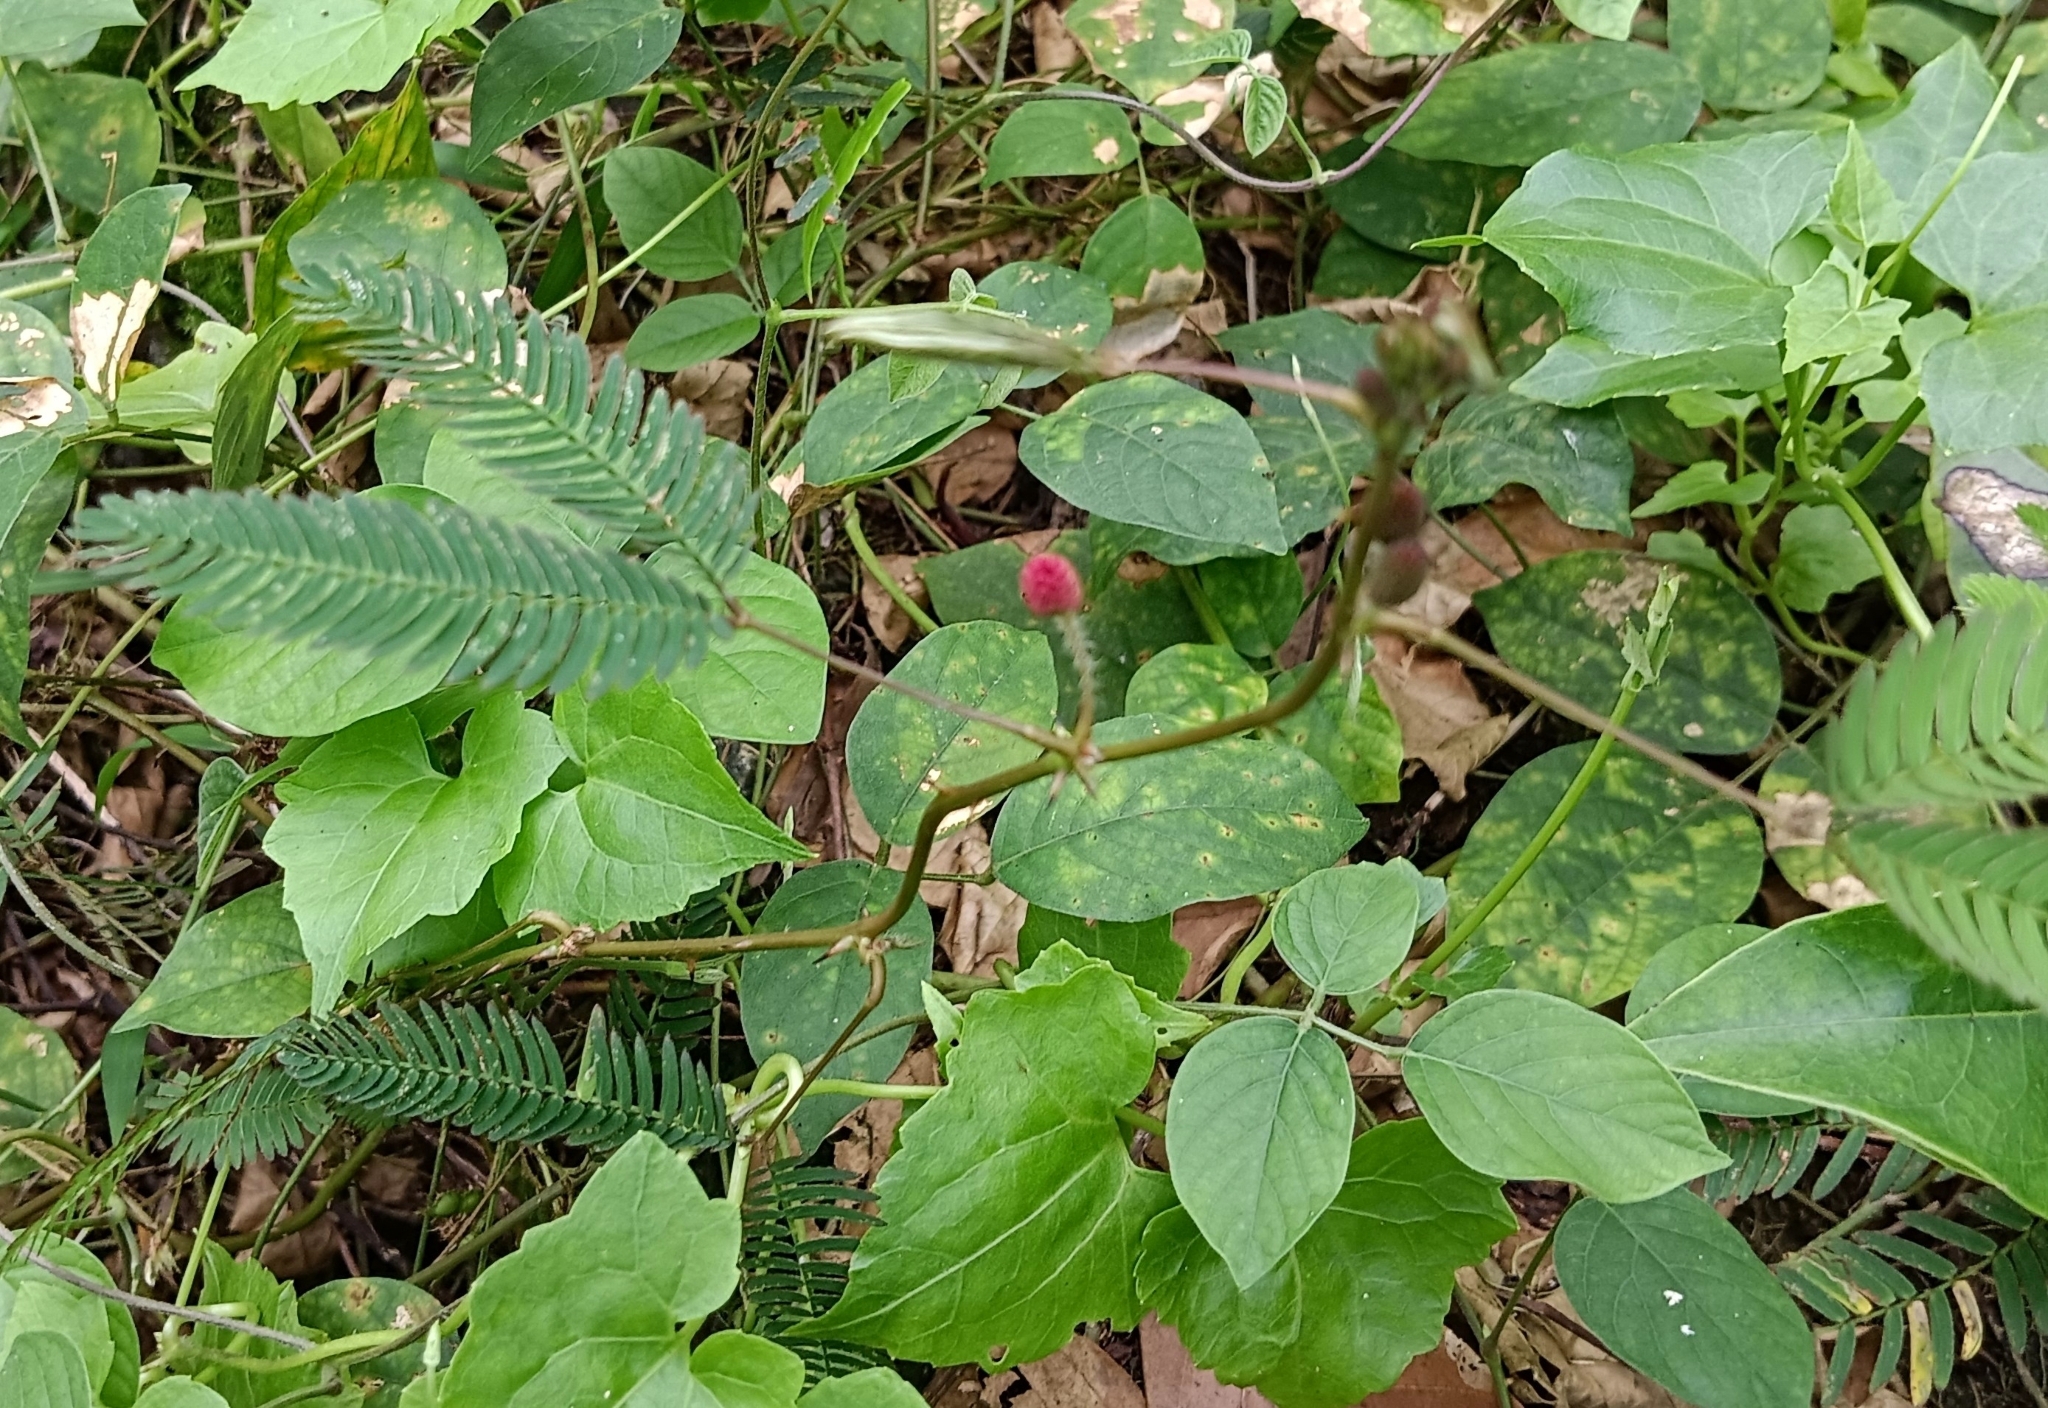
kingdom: Plantae
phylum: Tracheophyta
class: Magnoliopsida
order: Fabales
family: Fabaceae
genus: Mimosa
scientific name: Mimosa pudica
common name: Sensitive plant
